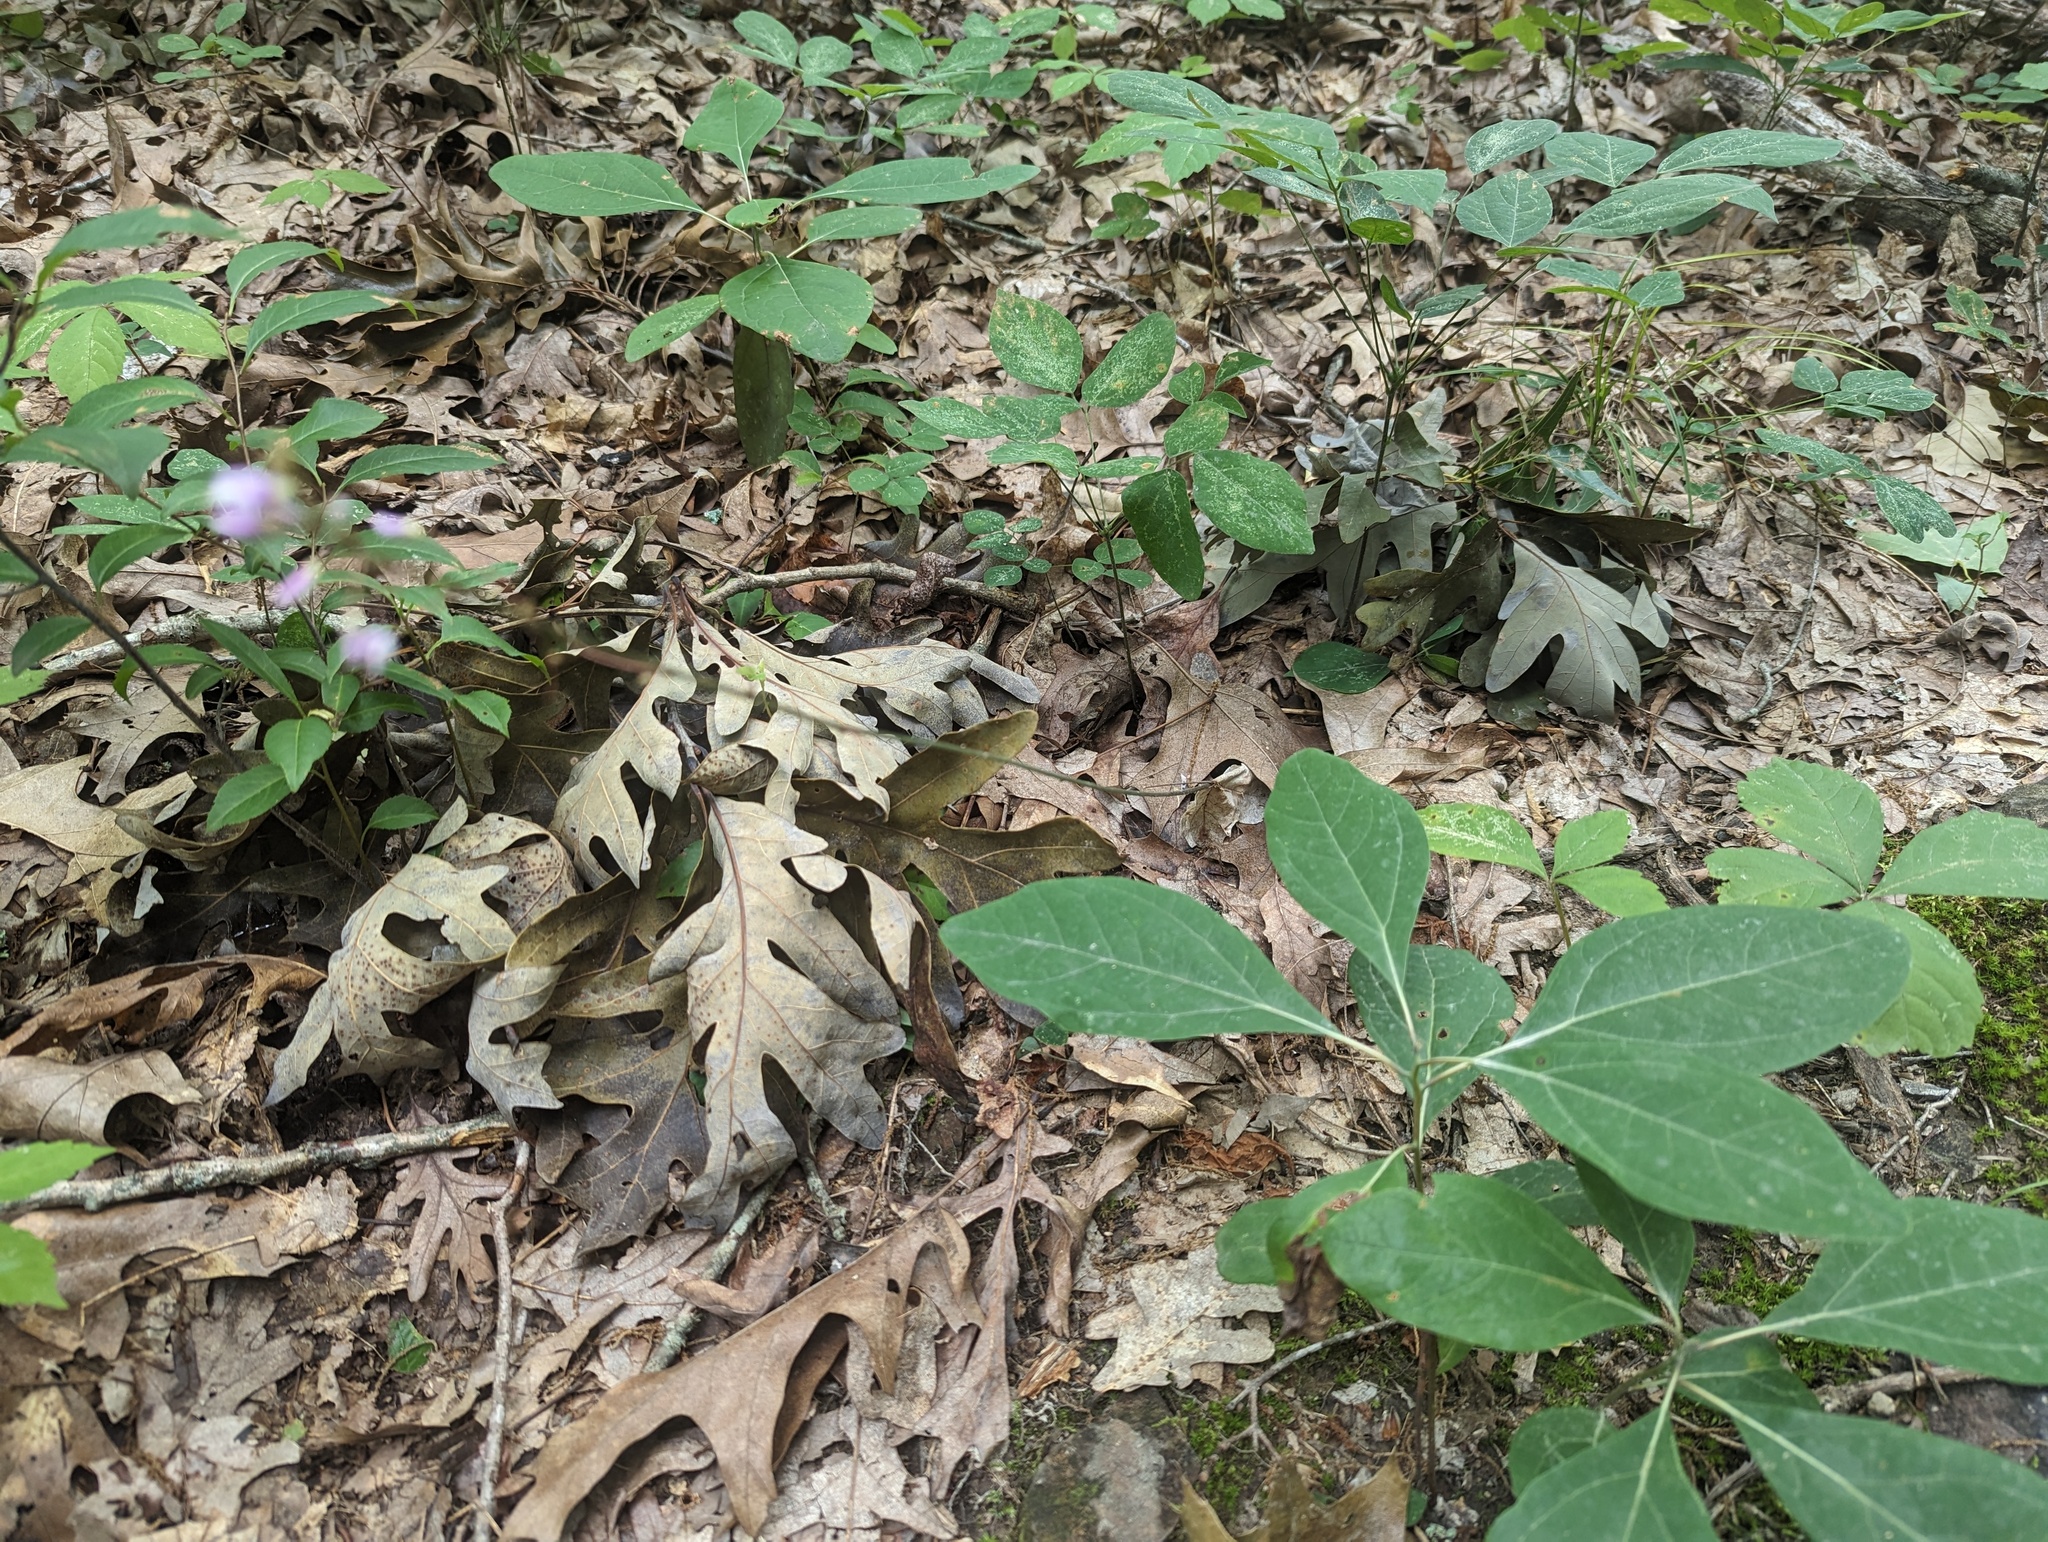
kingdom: Plantae
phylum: Tracheophyta
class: Magnoliopsida
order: Fabales
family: Fabaceae
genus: Hylodesmum
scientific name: Hylodesmum nudiflorum
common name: Bare-stemmed tick-trefoil
